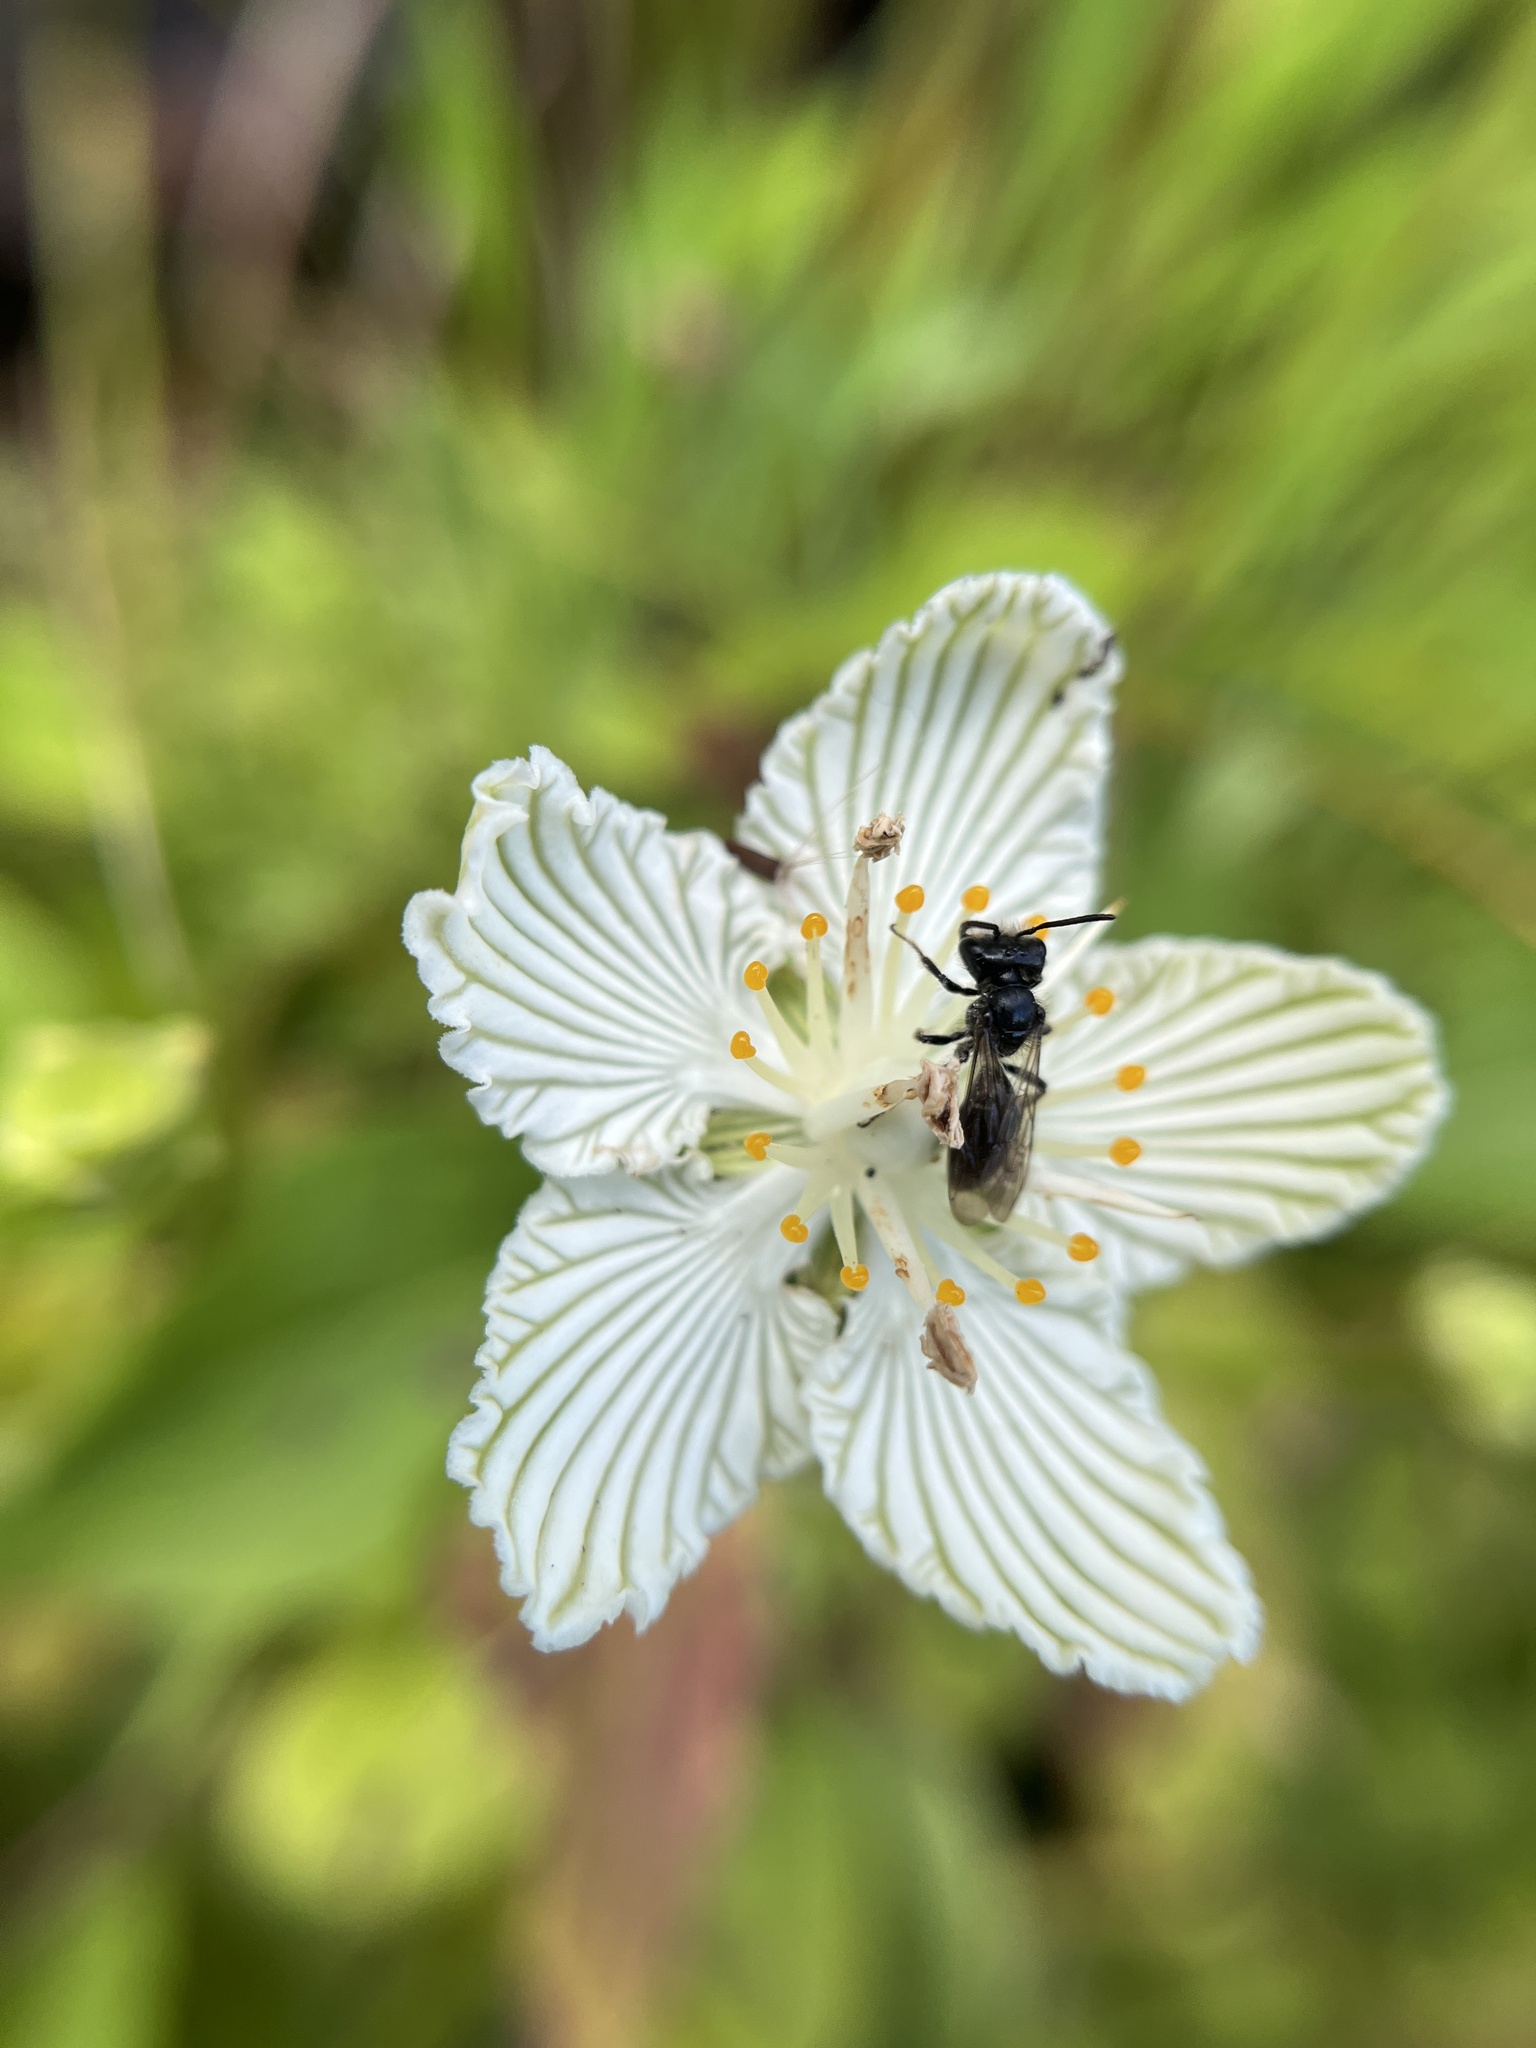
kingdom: Animalia
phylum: Arthropoda
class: Insecta
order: Hymenoptera
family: Andrenidae
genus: Andrena
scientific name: Andrena parnassiae
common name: Parnassia miner
